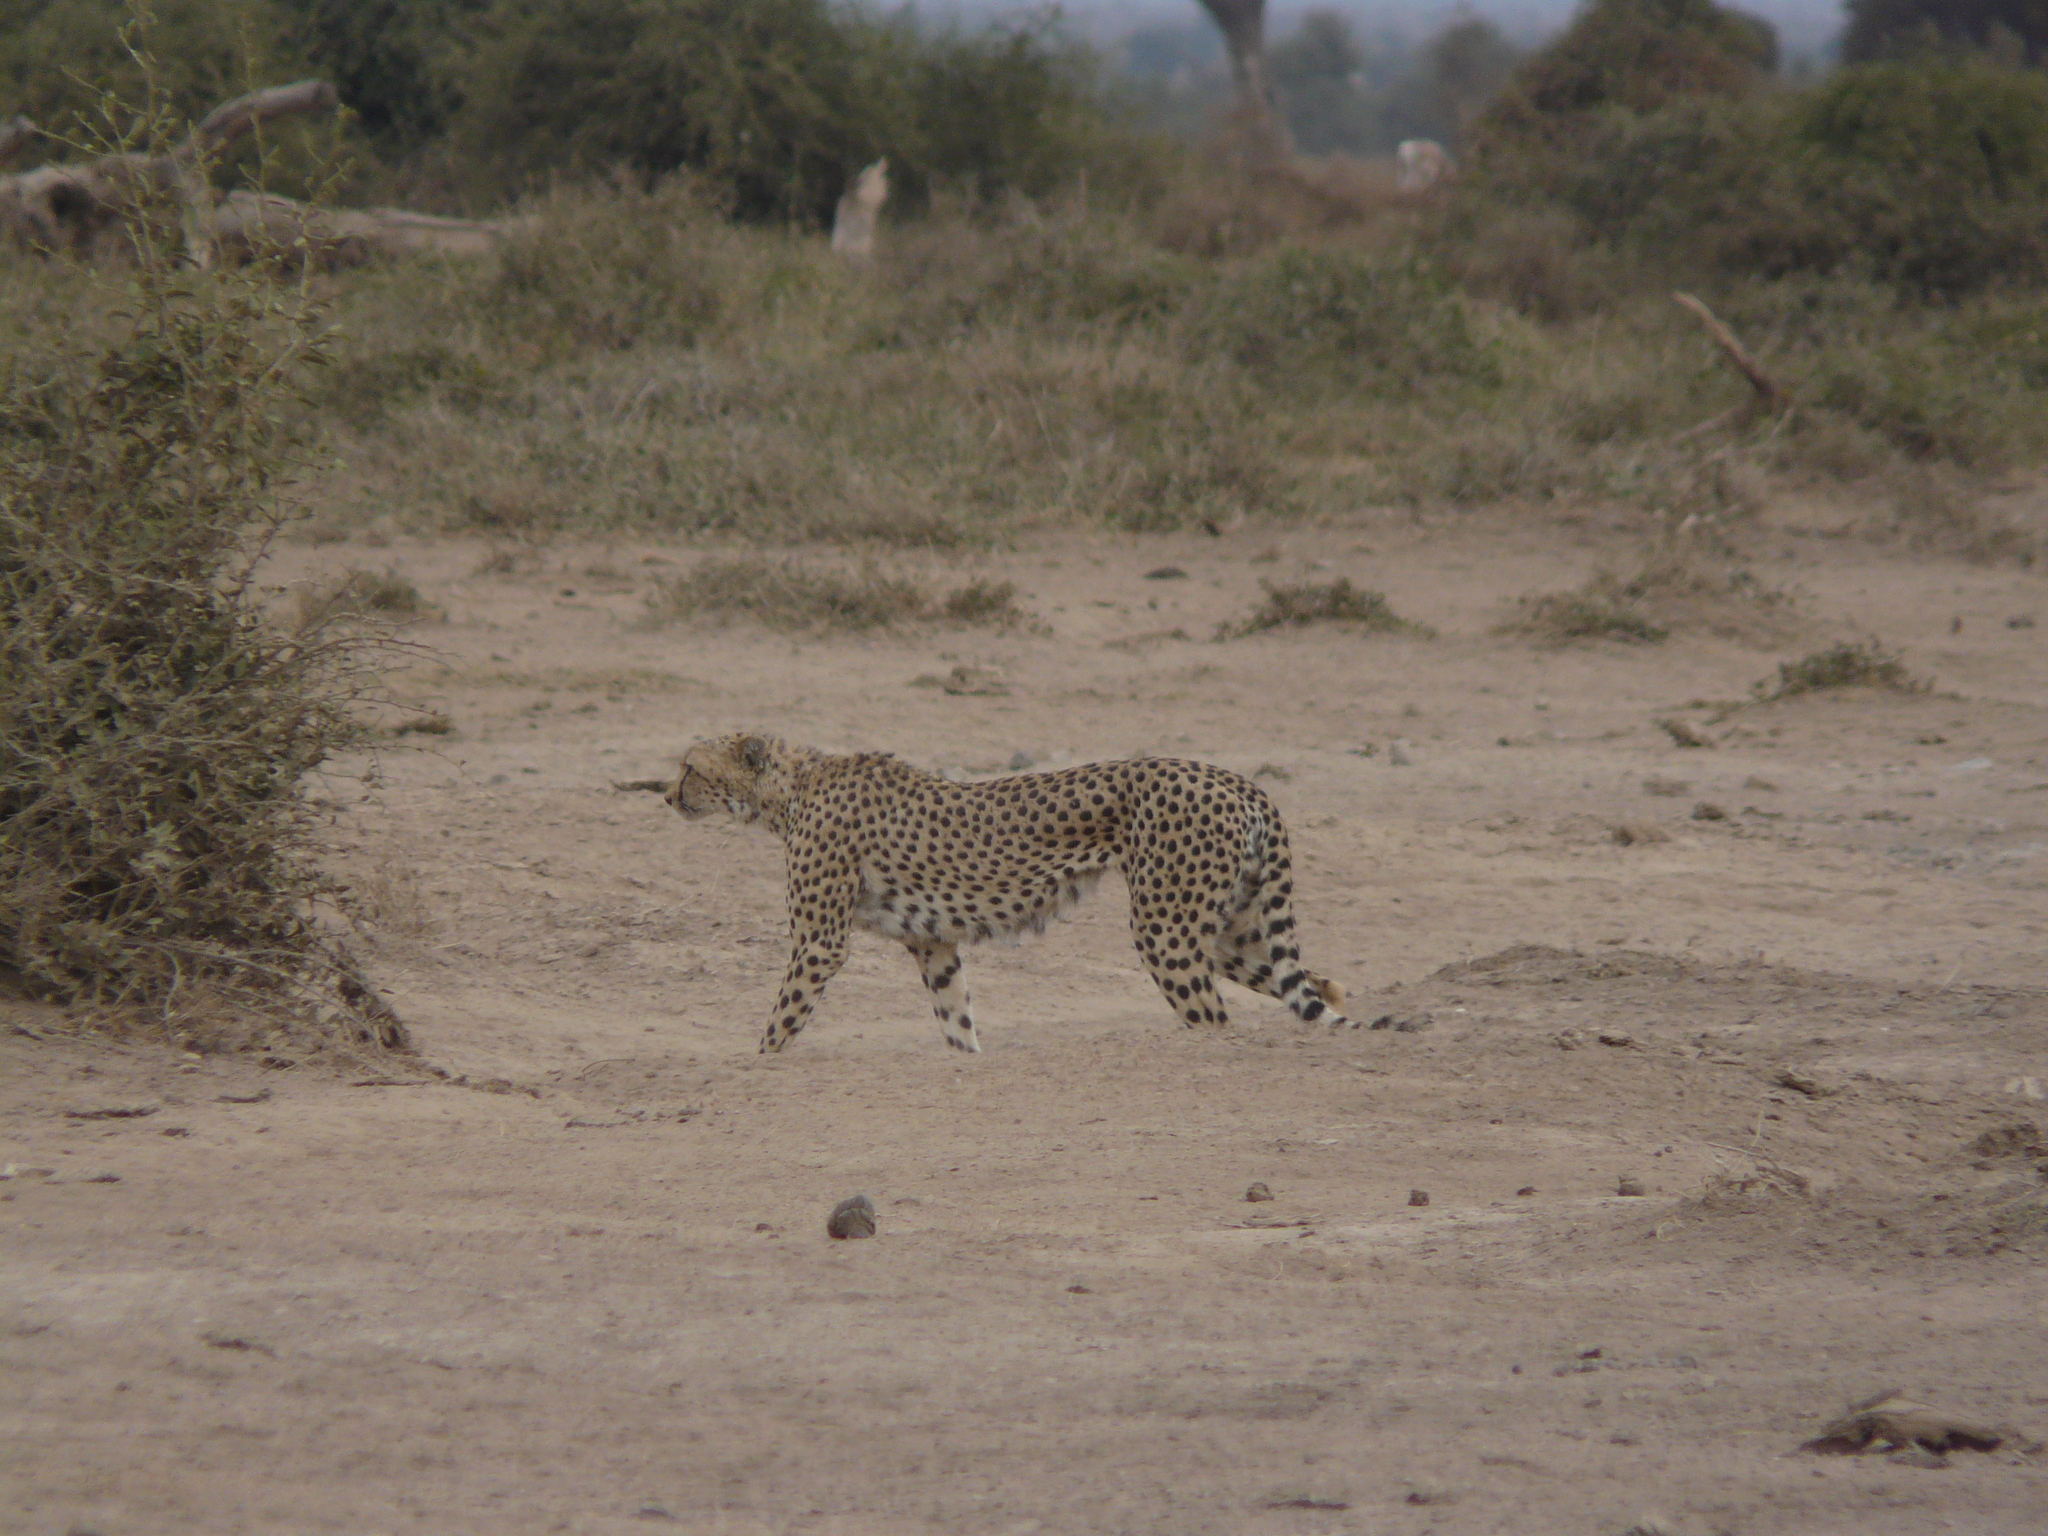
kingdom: Animalia
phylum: Chordata
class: Mammalia
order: Carnivora
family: Felidae
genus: Acinonyx
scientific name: Acinonyx jubatus
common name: Cheetah
